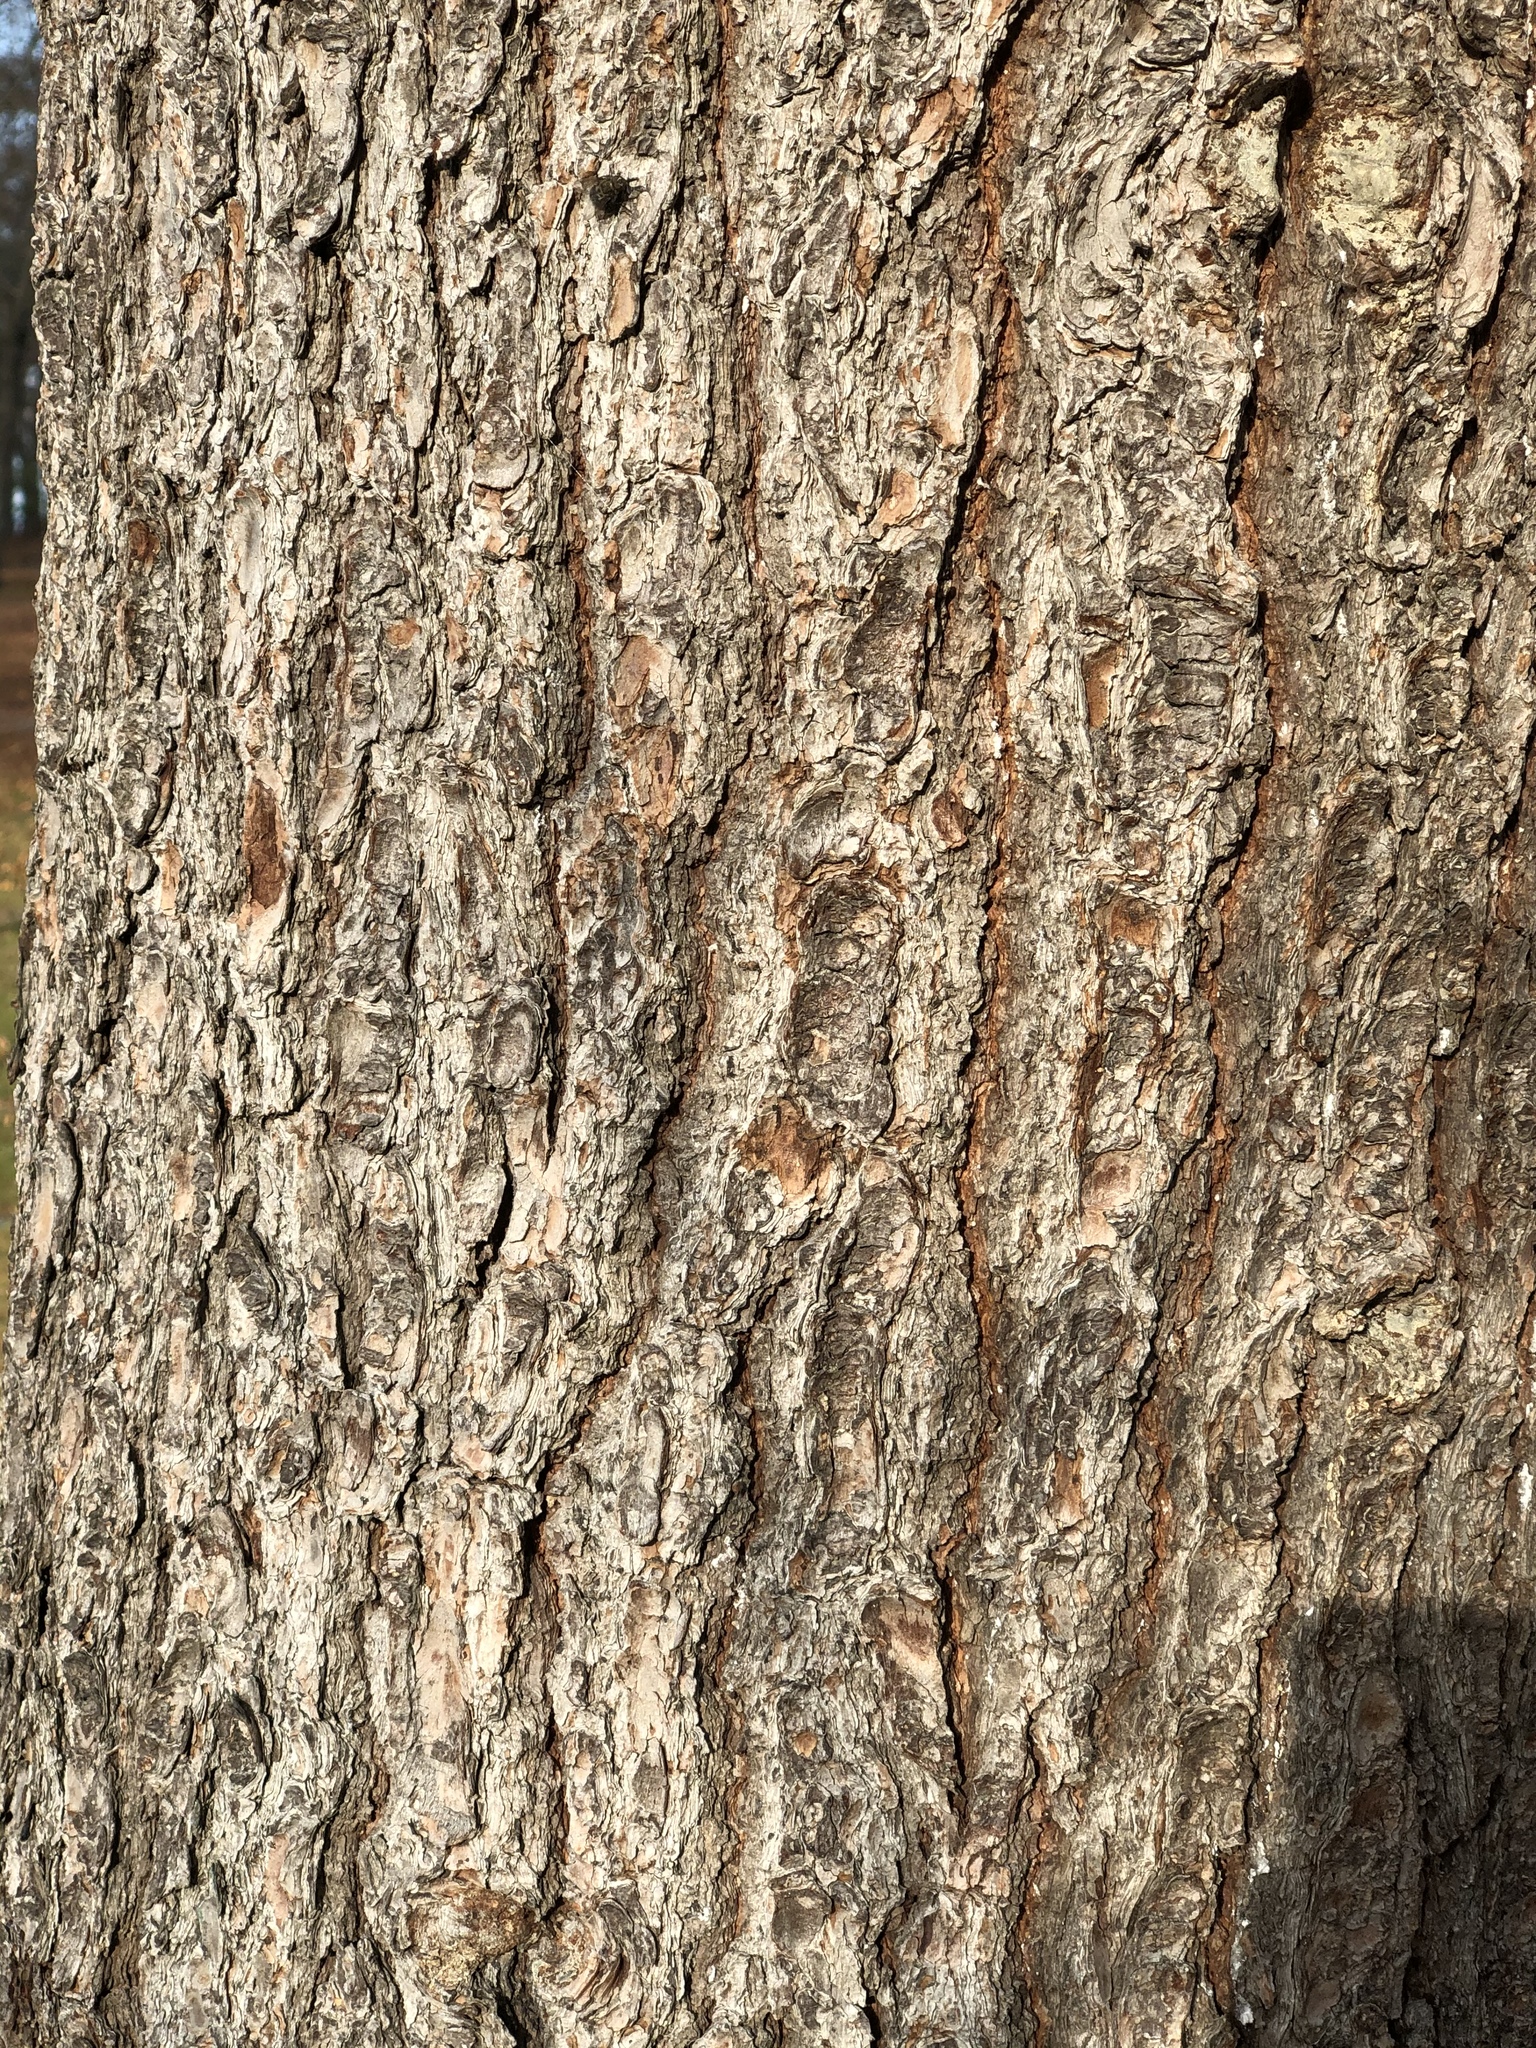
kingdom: Plantae
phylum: Tracheophyta
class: Pinopsida
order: Pinales
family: Pinaceae
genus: Pinus
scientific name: Pinus strobus
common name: Weymouth pine
